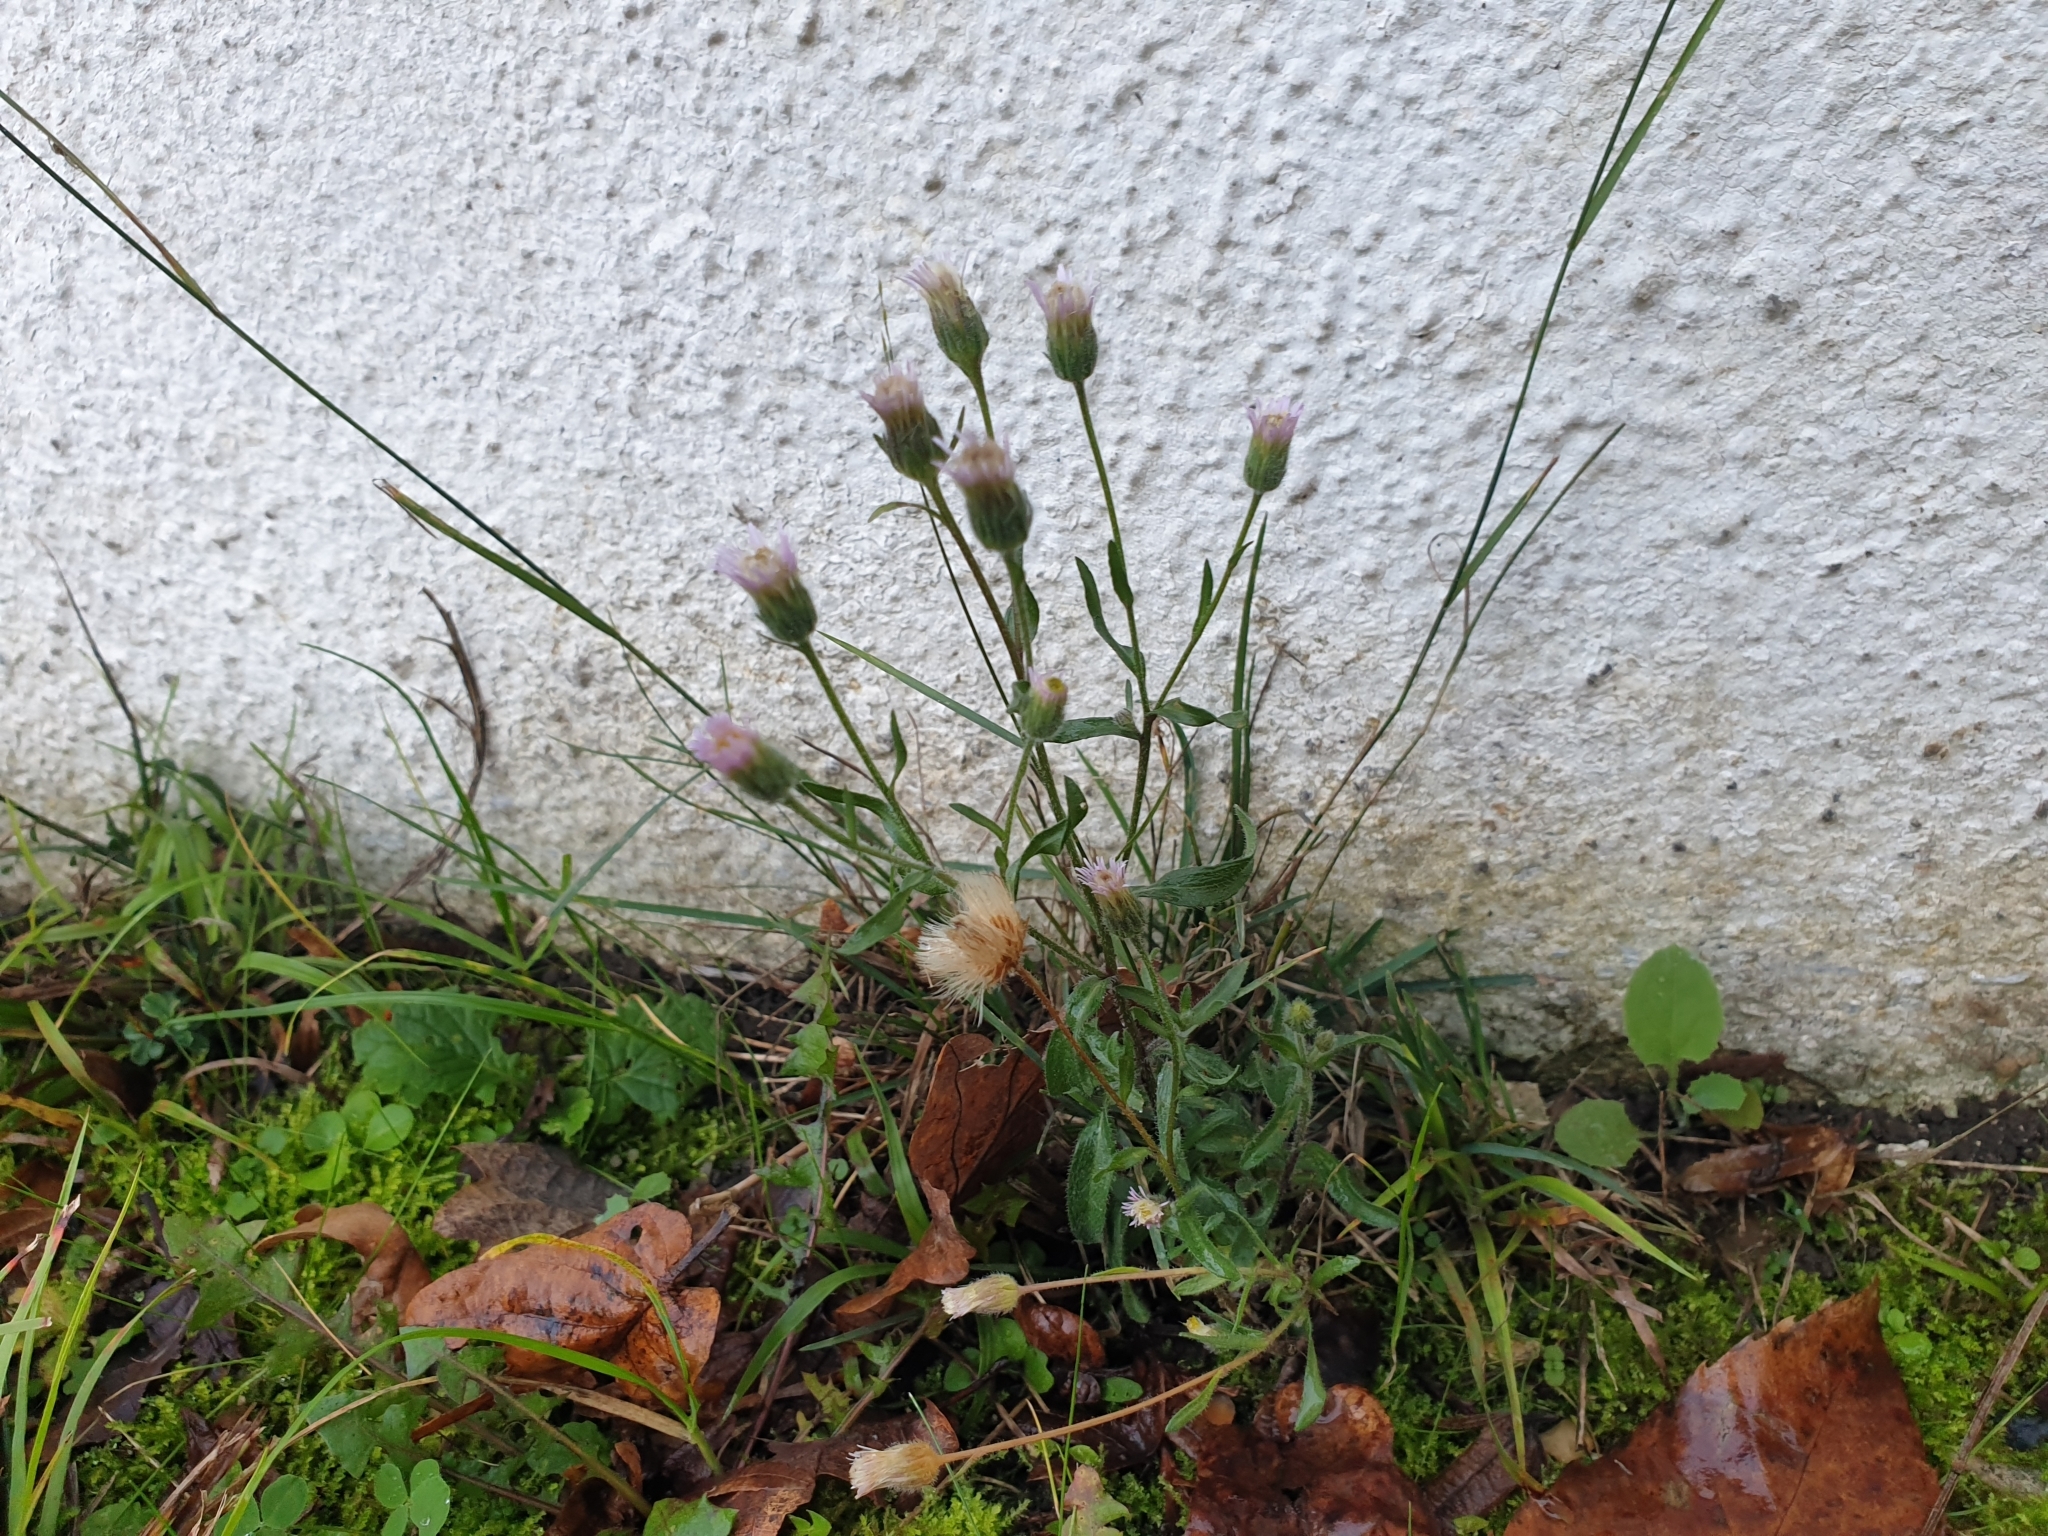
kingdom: Plantae
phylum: Tracheophyta
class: Magnoliopsida
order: Asterales
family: Asteraceae
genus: Erigeron
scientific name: Erigeron acris
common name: Blue fleabane
